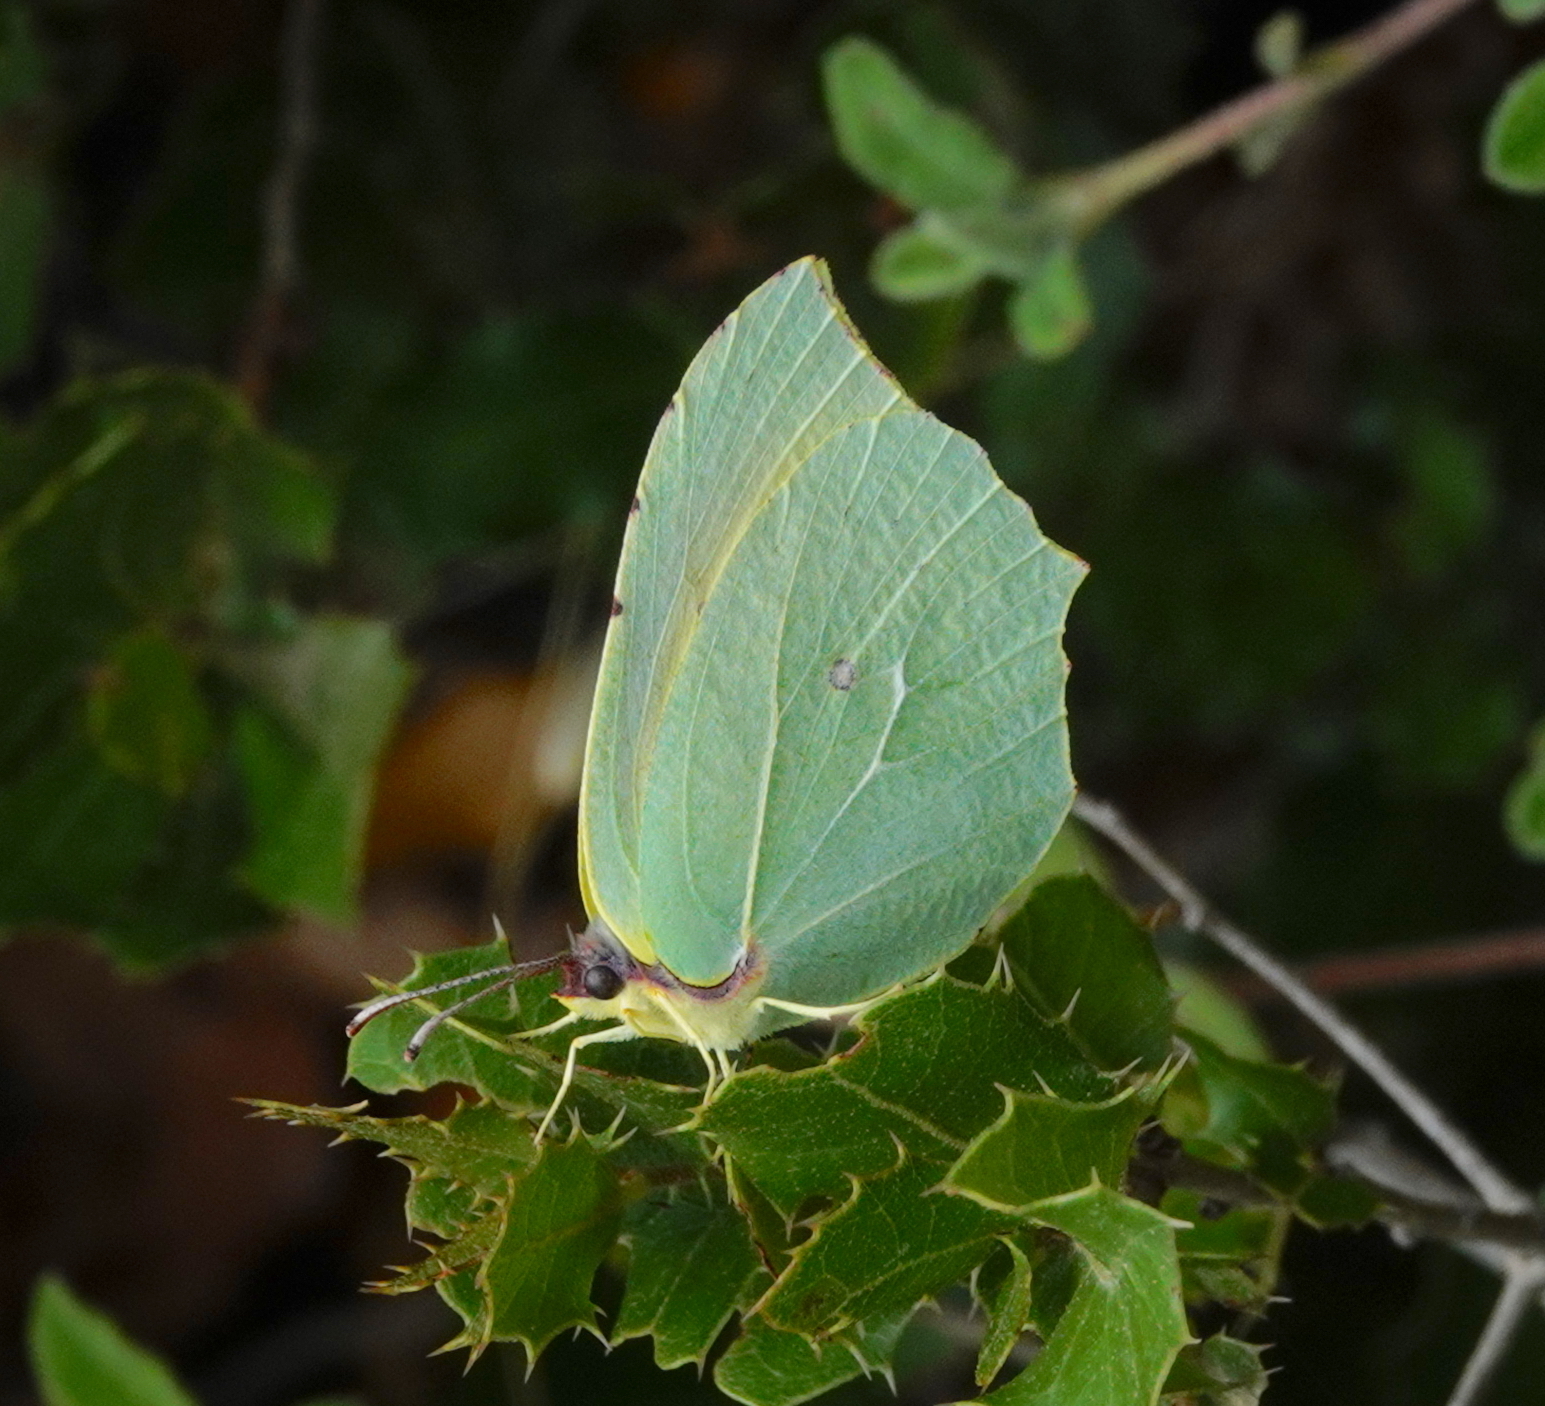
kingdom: Animalia
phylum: Arthropoda
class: Insecta
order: Lepidoptera
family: Pieridae
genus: Gonepteryx
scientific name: Gonepteryx cleopatra
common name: Cleopatra
